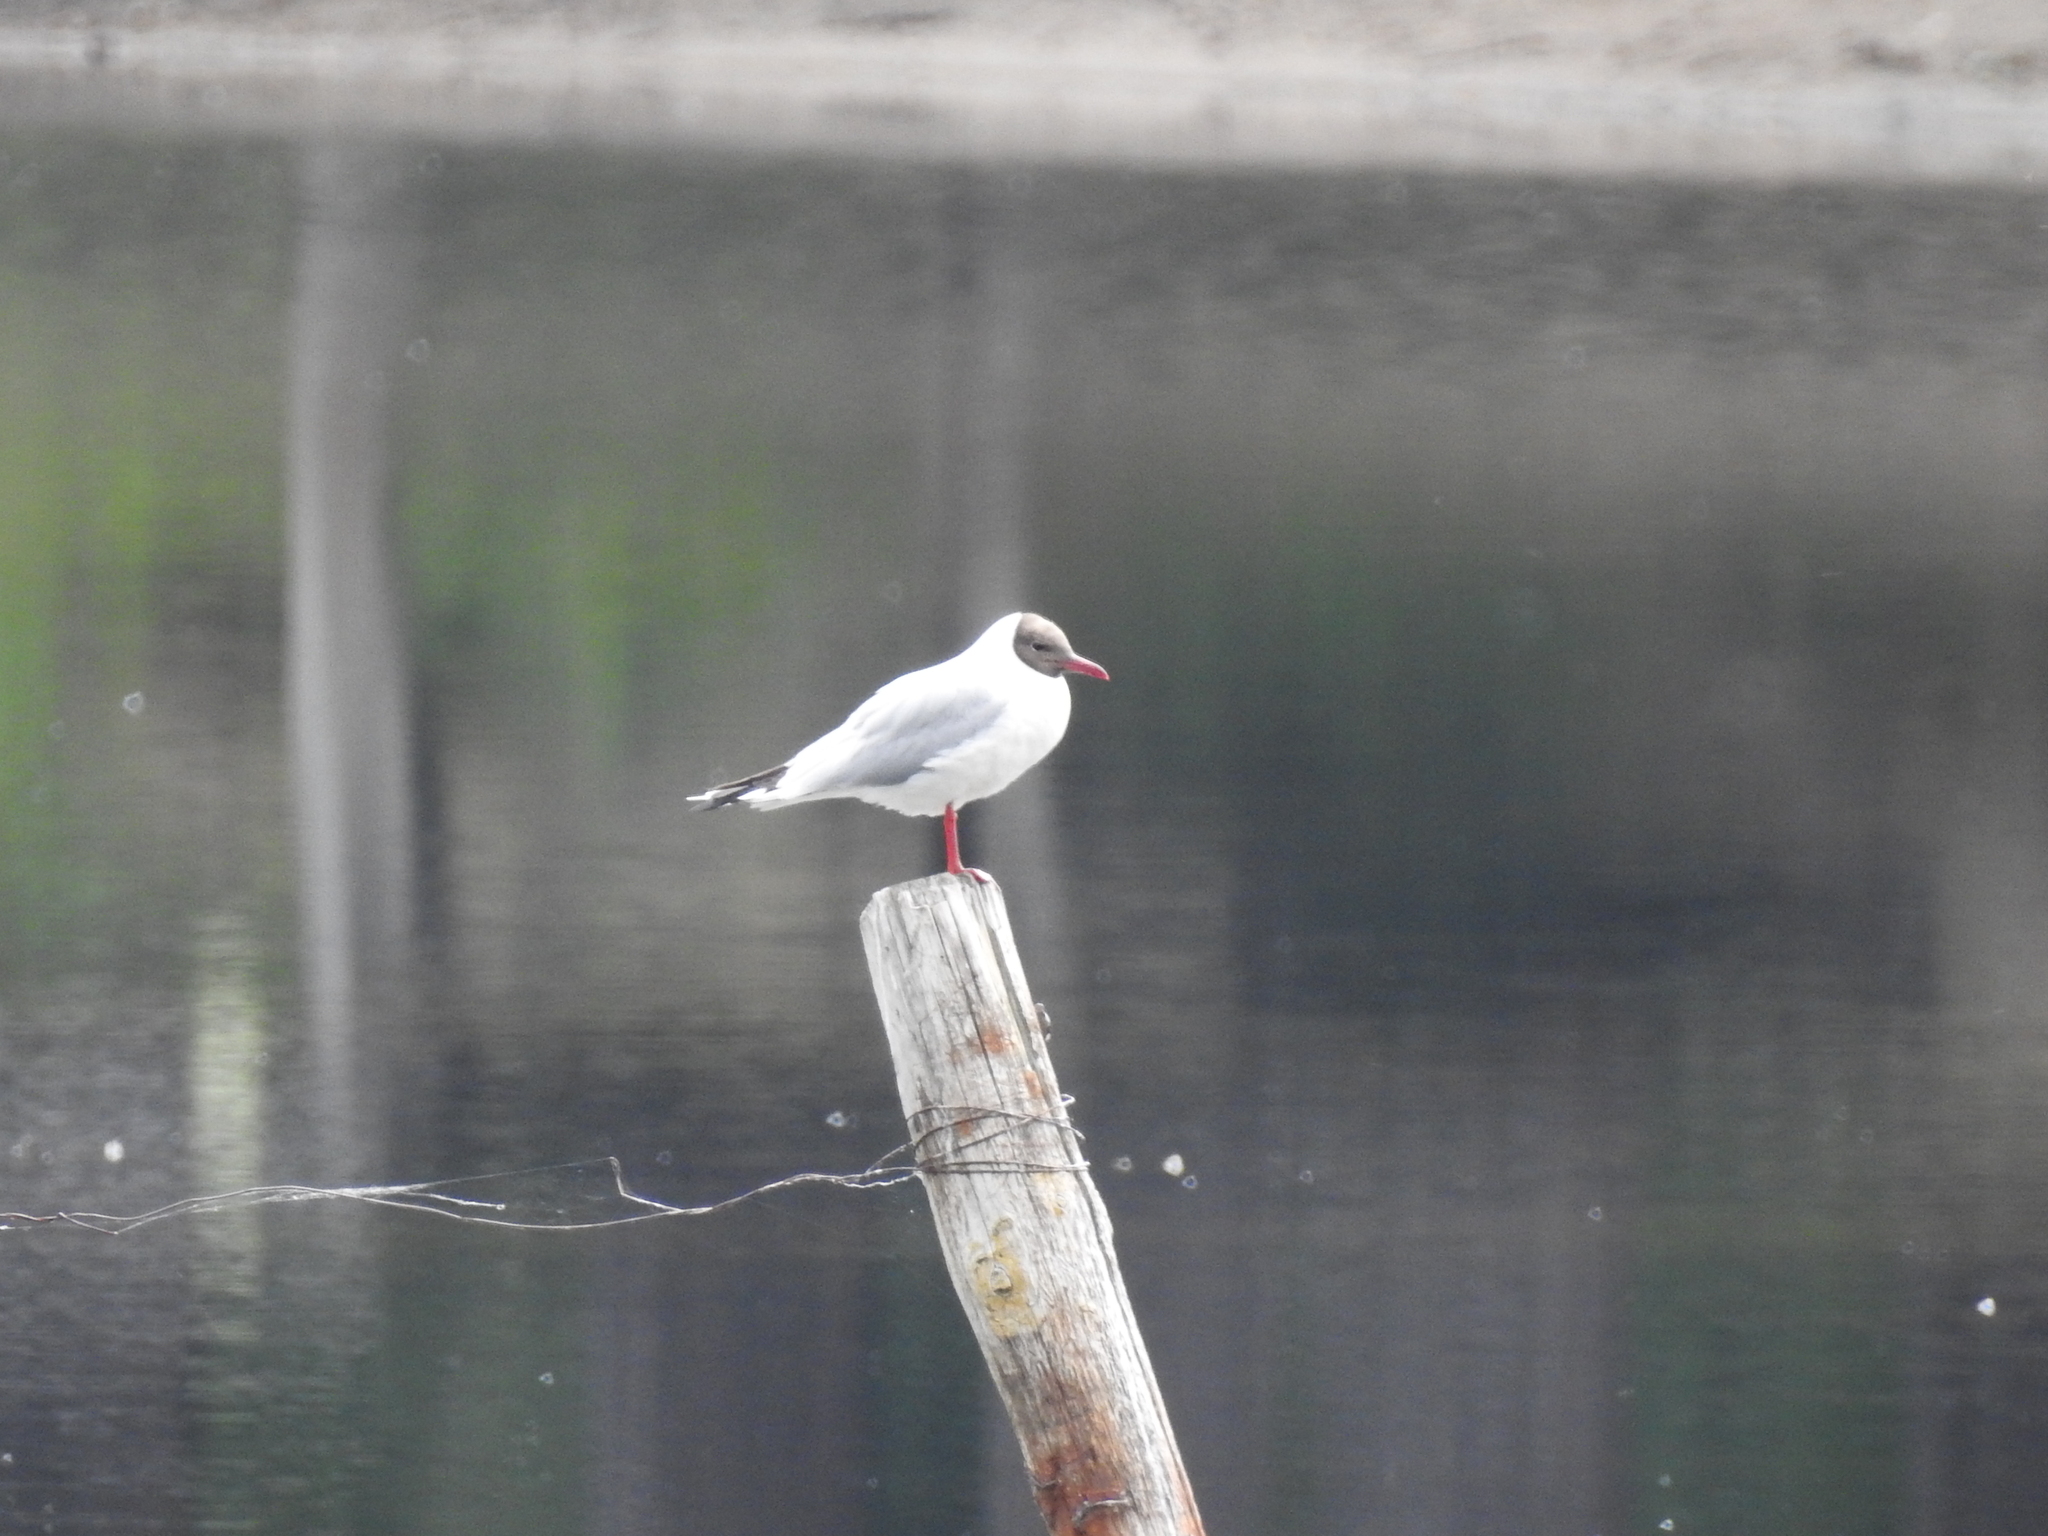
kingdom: Animalia
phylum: Chordata
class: Aves
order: Charadriiformes
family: Laridae
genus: Chroicocephalus
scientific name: Chroicocephalus ridibundus
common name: Black-headed gull
